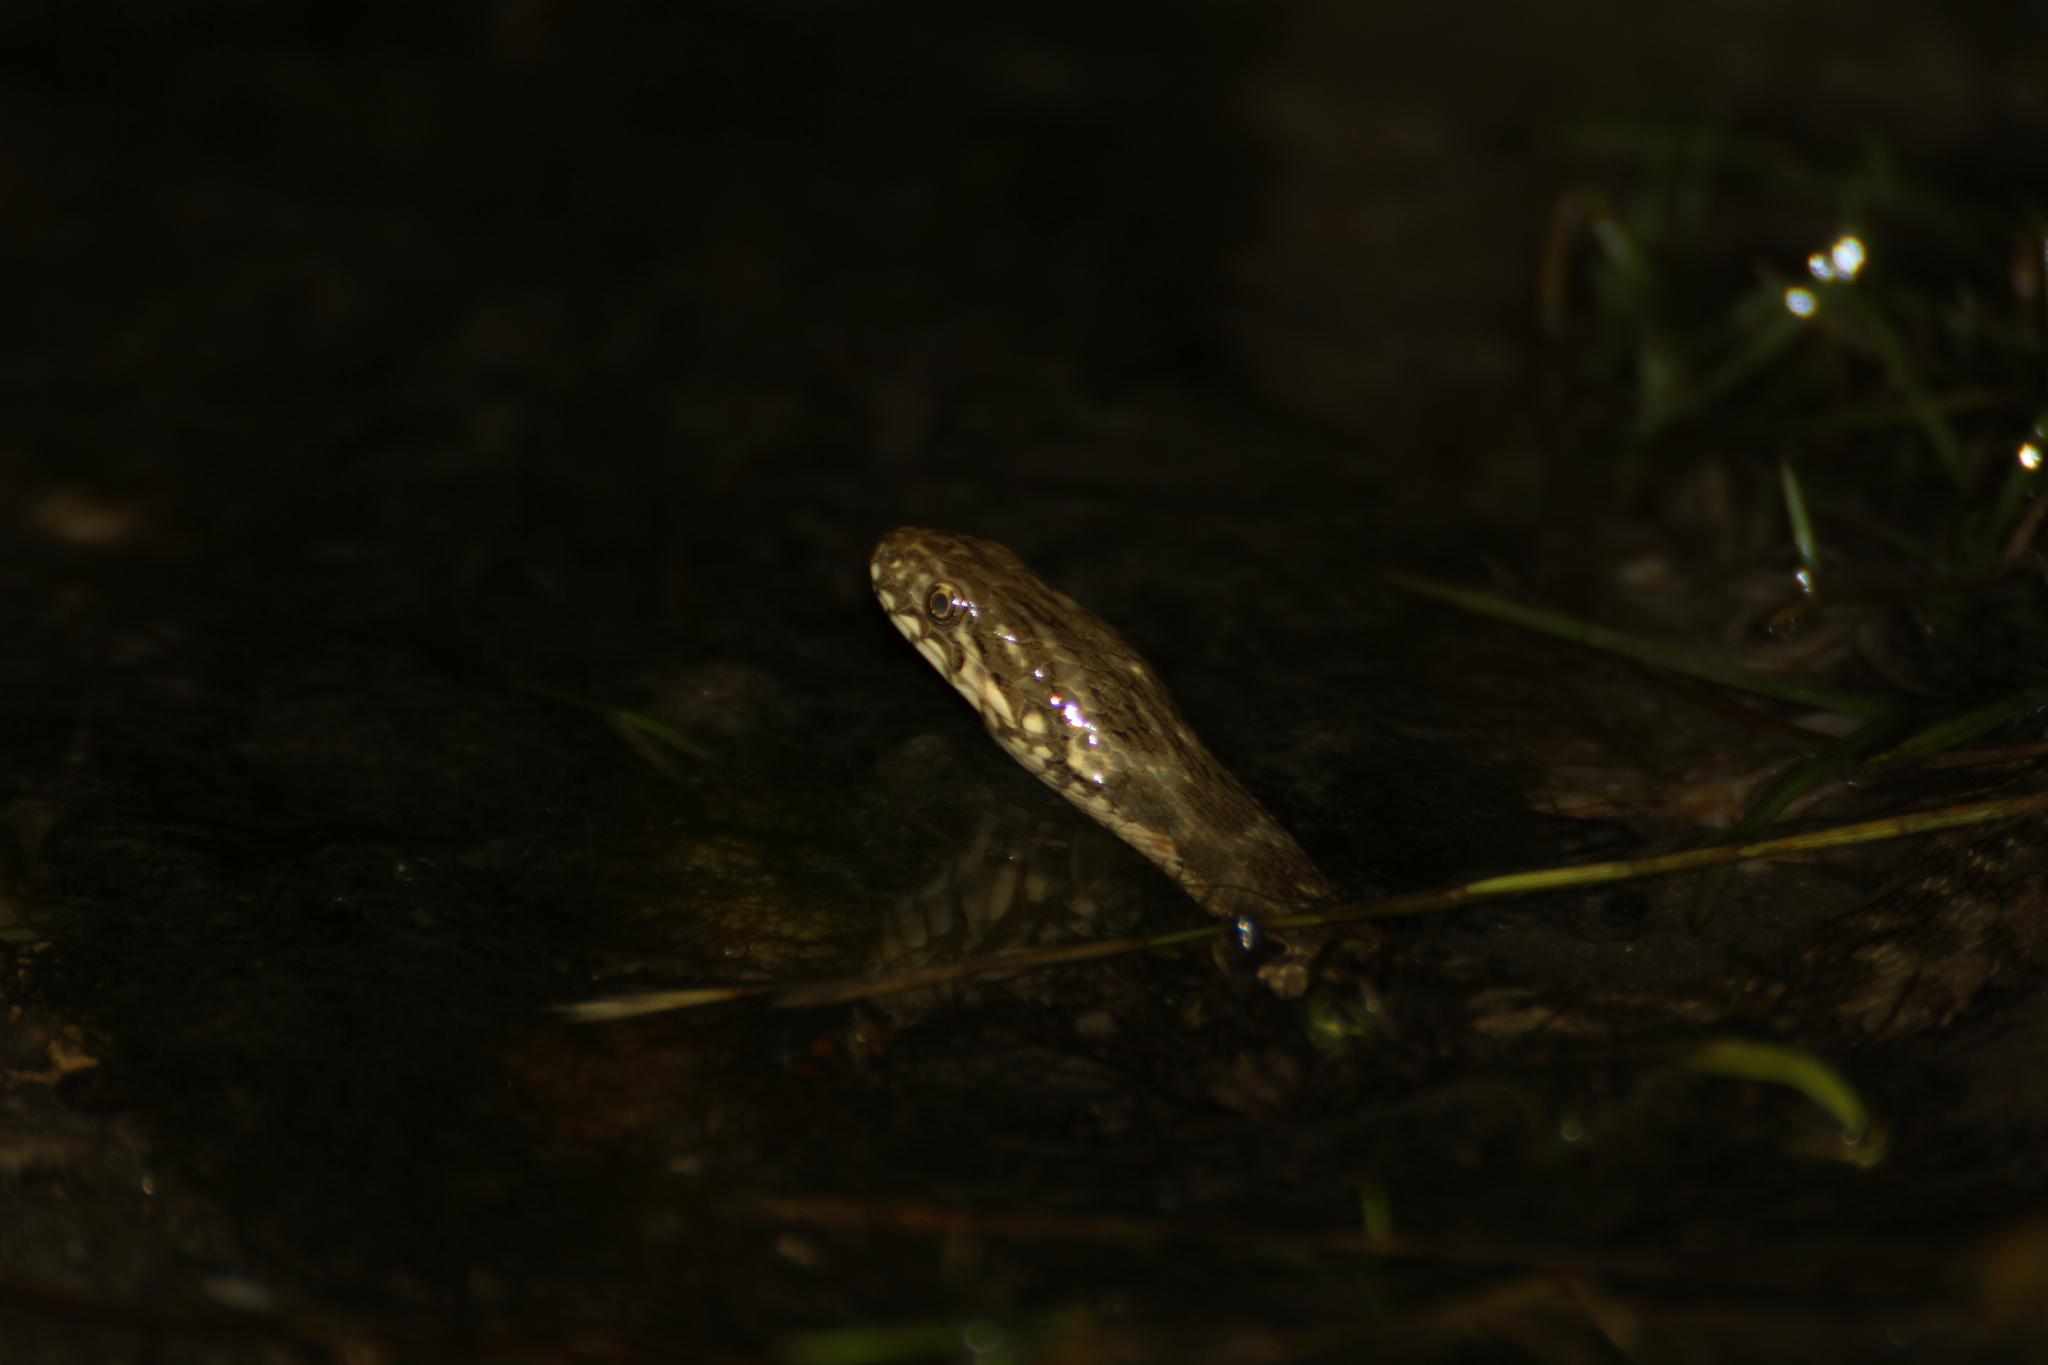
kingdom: Animalia
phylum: Chordata
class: Squamata
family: Colubridae
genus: Natrix
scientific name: Natrix maura
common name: Viperine water snake
